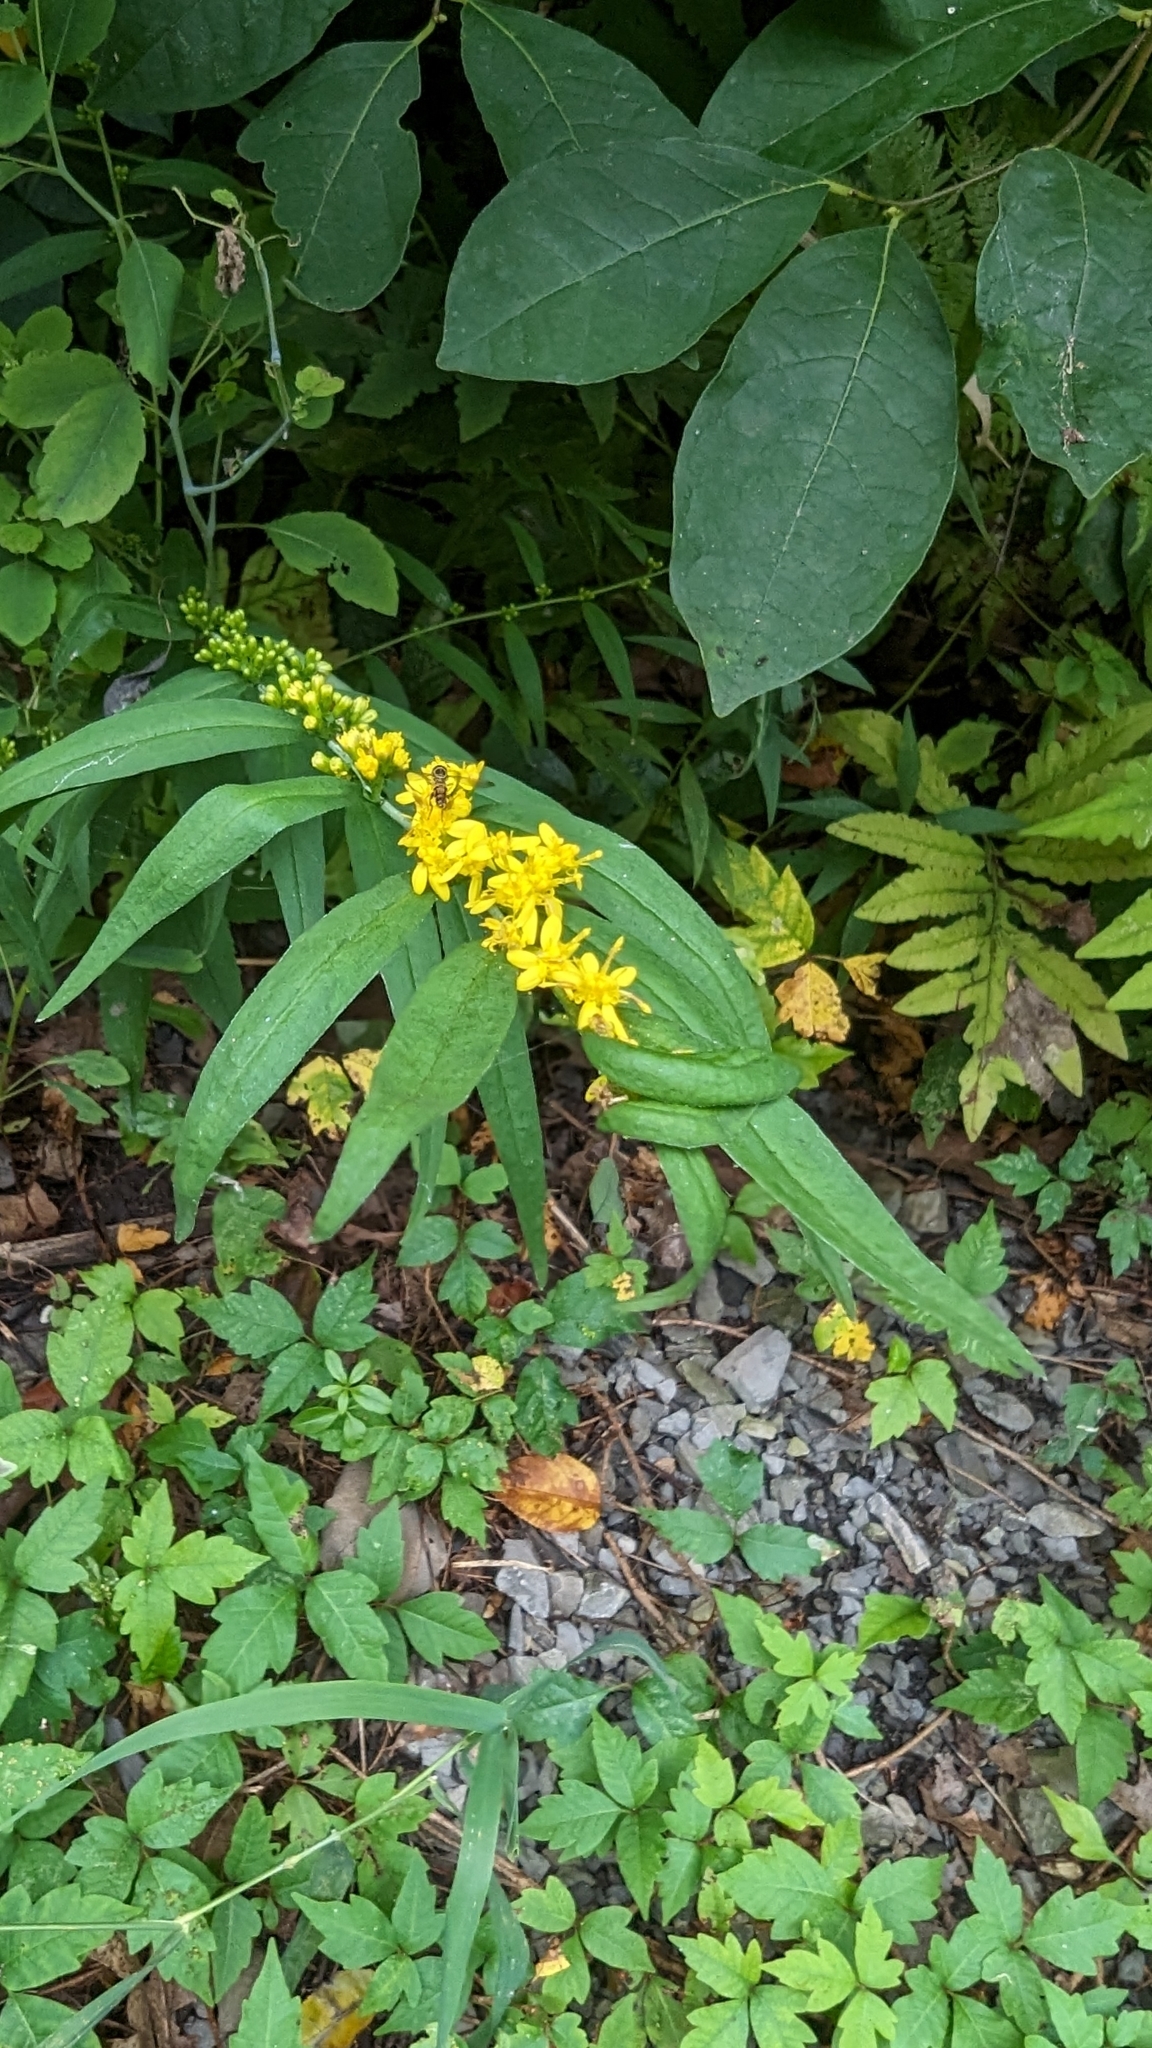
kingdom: Plantae
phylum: Tracheophyta
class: Magnoliopsida
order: Asterales
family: Asteraceae
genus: Solidago
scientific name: Solidago caesia
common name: Woodland goldenrod
